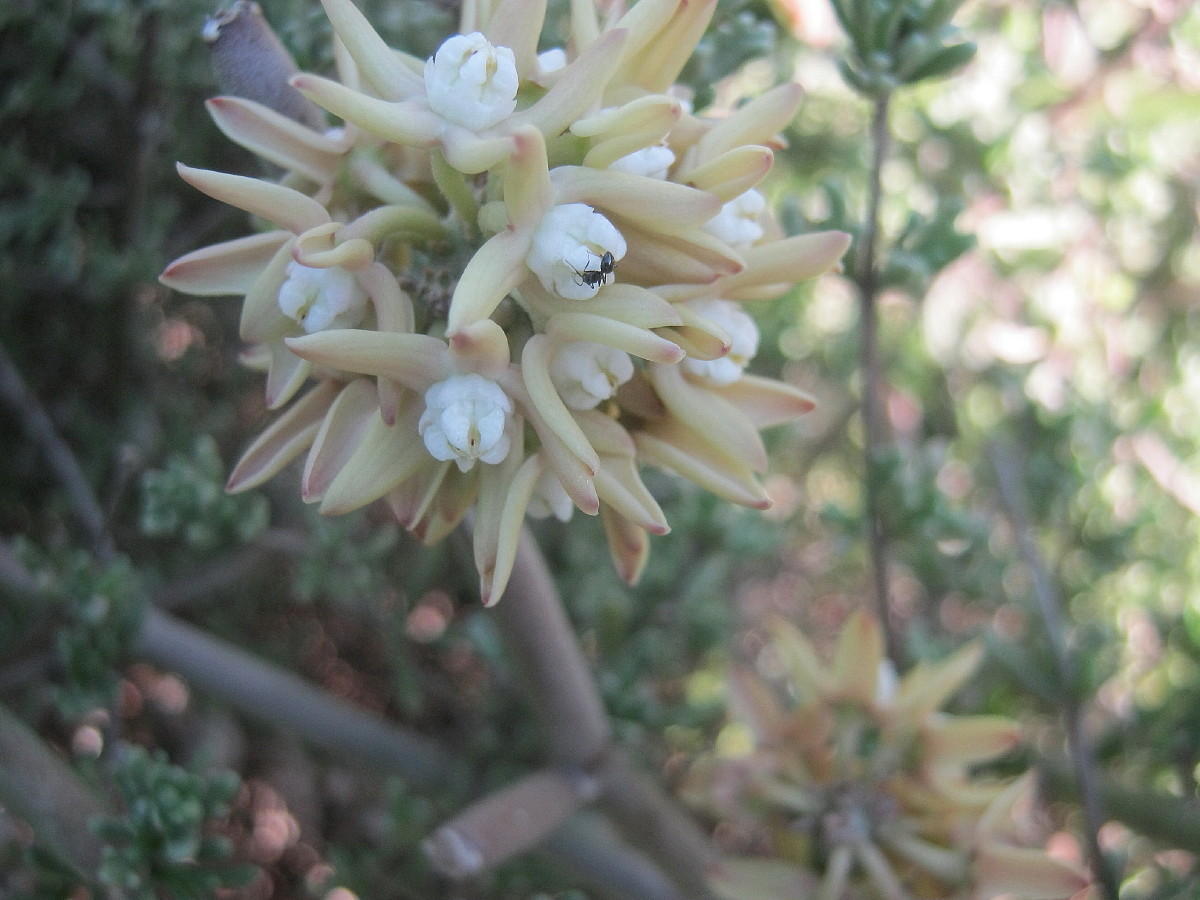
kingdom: Plantae
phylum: Tracheophyta
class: Magnoliopsida
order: Gentianales
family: Apocynaceae
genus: Cynanchum
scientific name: Cynanchum viminale
